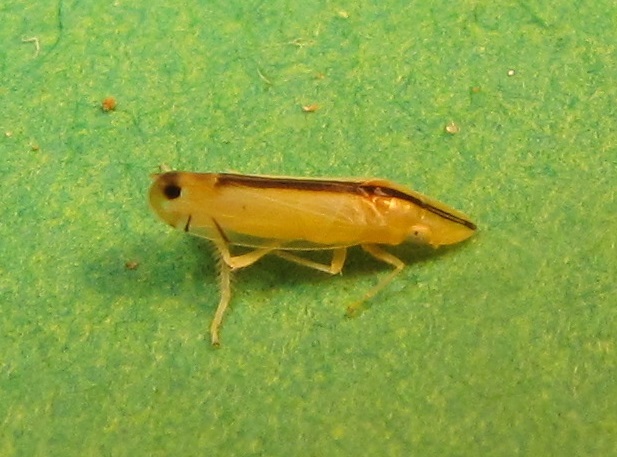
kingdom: Animalia
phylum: Arthropoda
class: Insecta
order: Hemiptera
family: Cicadellidae
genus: Sophonia
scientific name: Sophonia orientalis
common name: Two-spotted leafhopper
